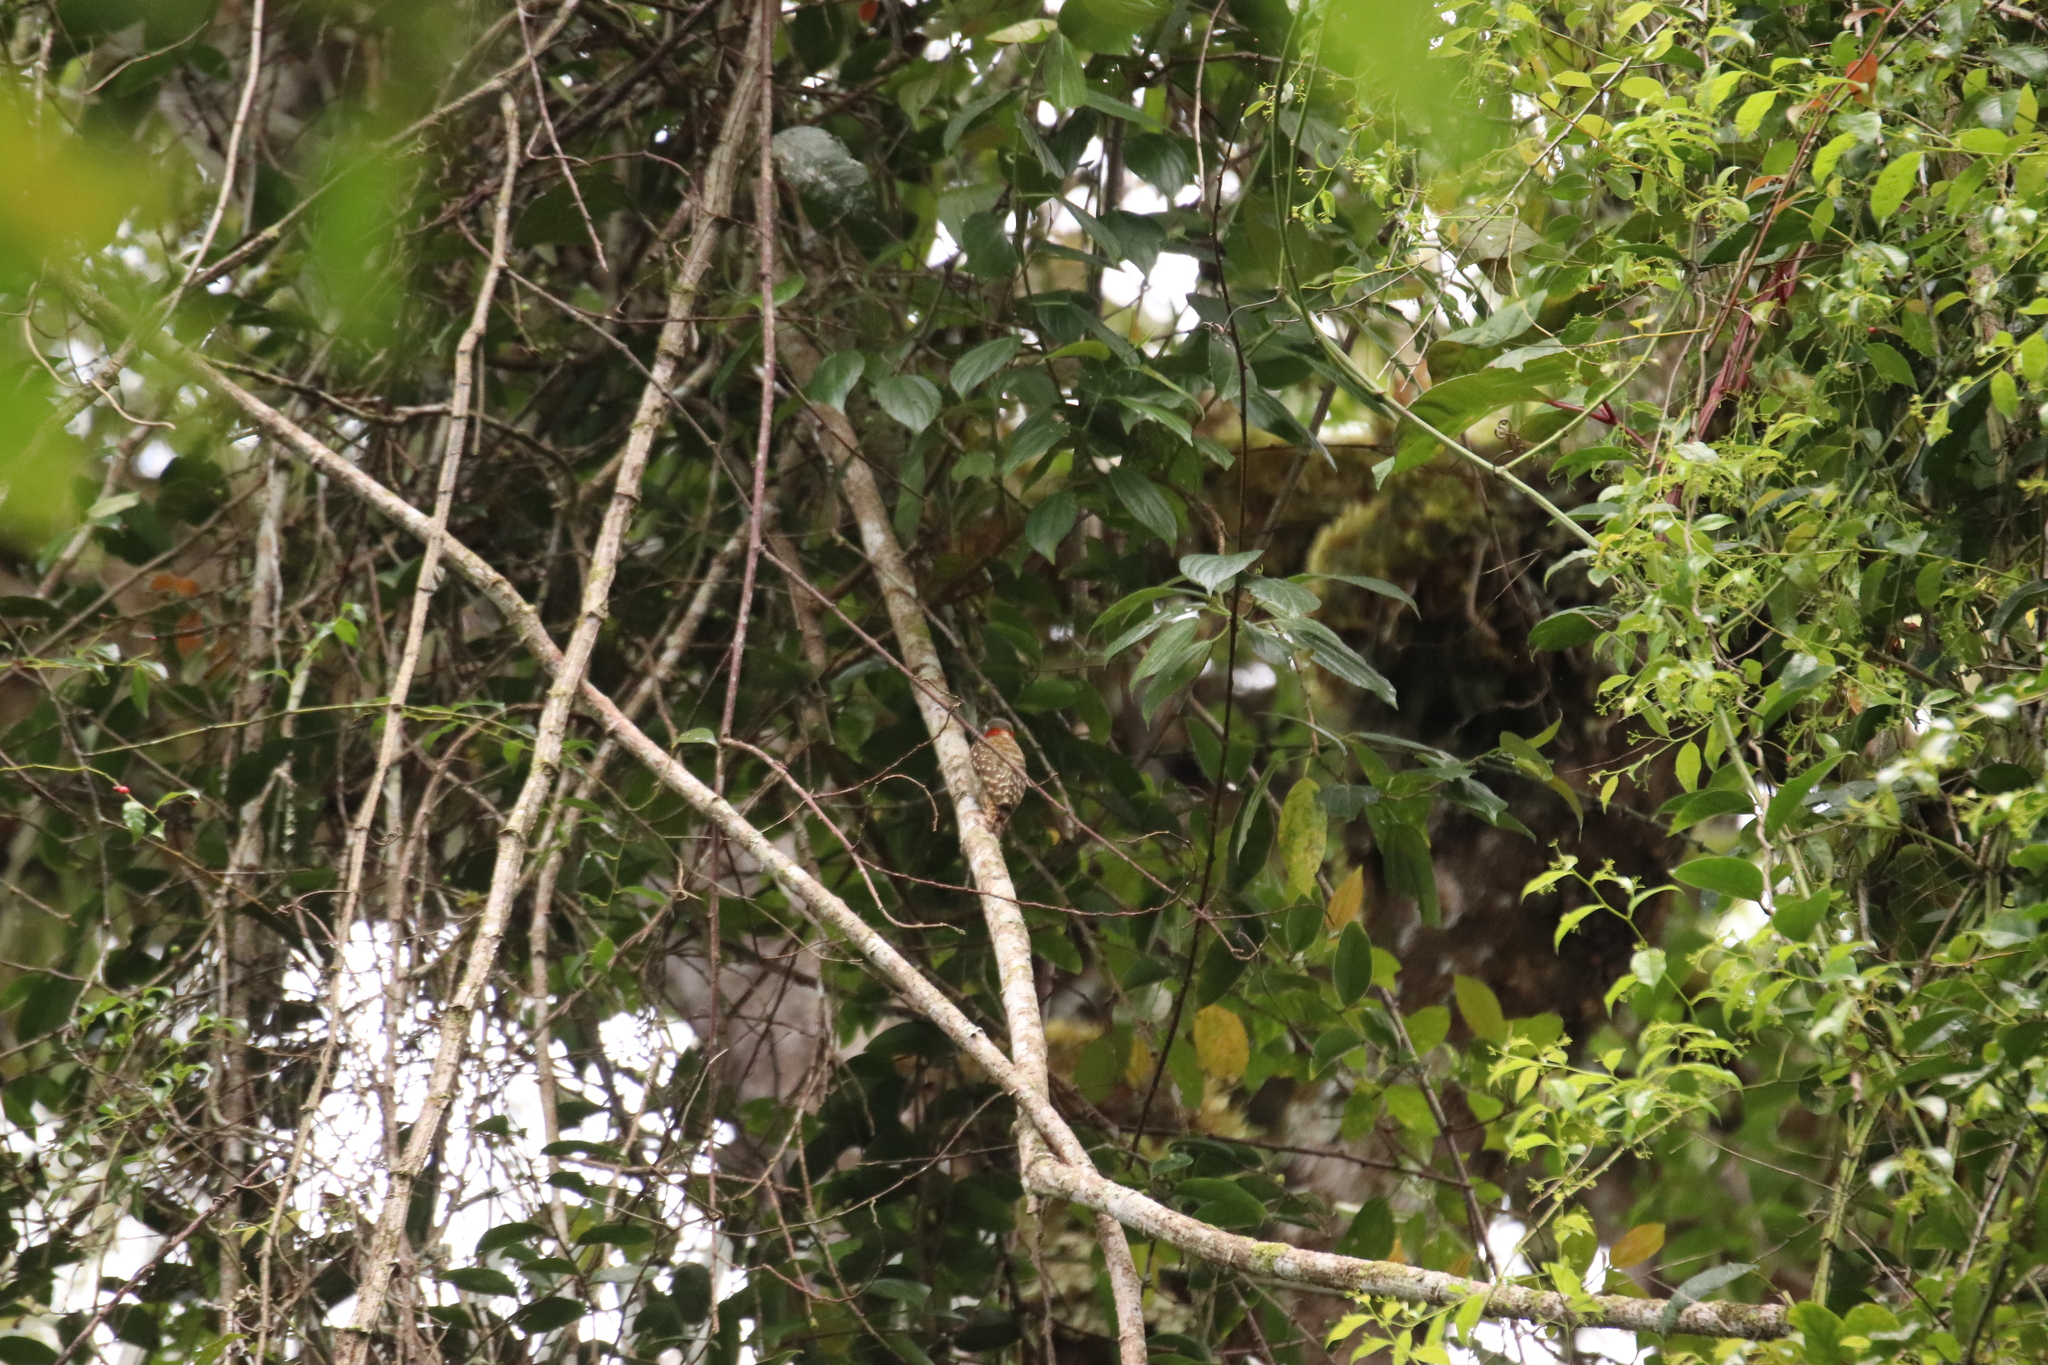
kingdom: Animalia
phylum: Chordata
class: Aves
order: Piciformes
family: Picidae
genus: Yungipicus
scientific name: Yungipicus temminckii
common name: Sulawesi pygmy woodpecker
